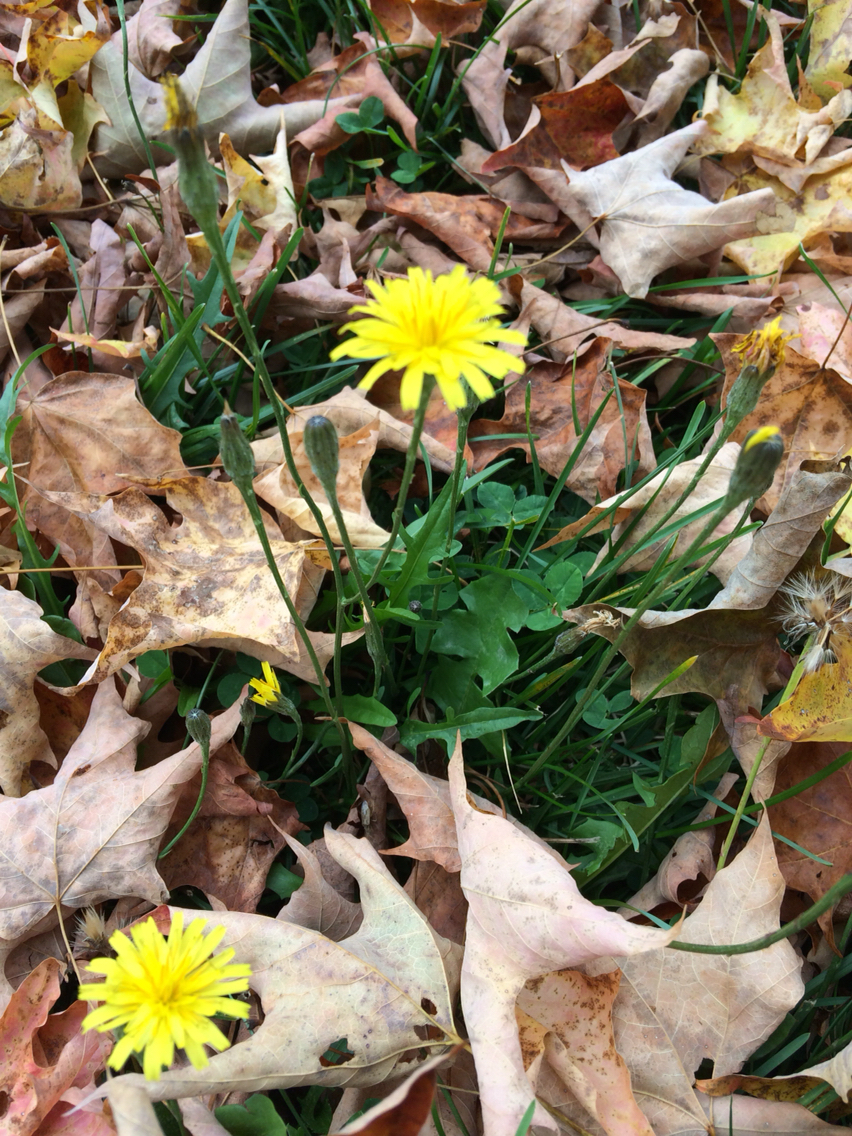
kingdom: Plantae
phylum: Tracheophyta
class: Magnoliopsida
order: Asterales
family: Asteraceae
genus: Scorzoneroides
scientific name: Scorzoneroides autumnalis
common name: Autumn hawkbit
